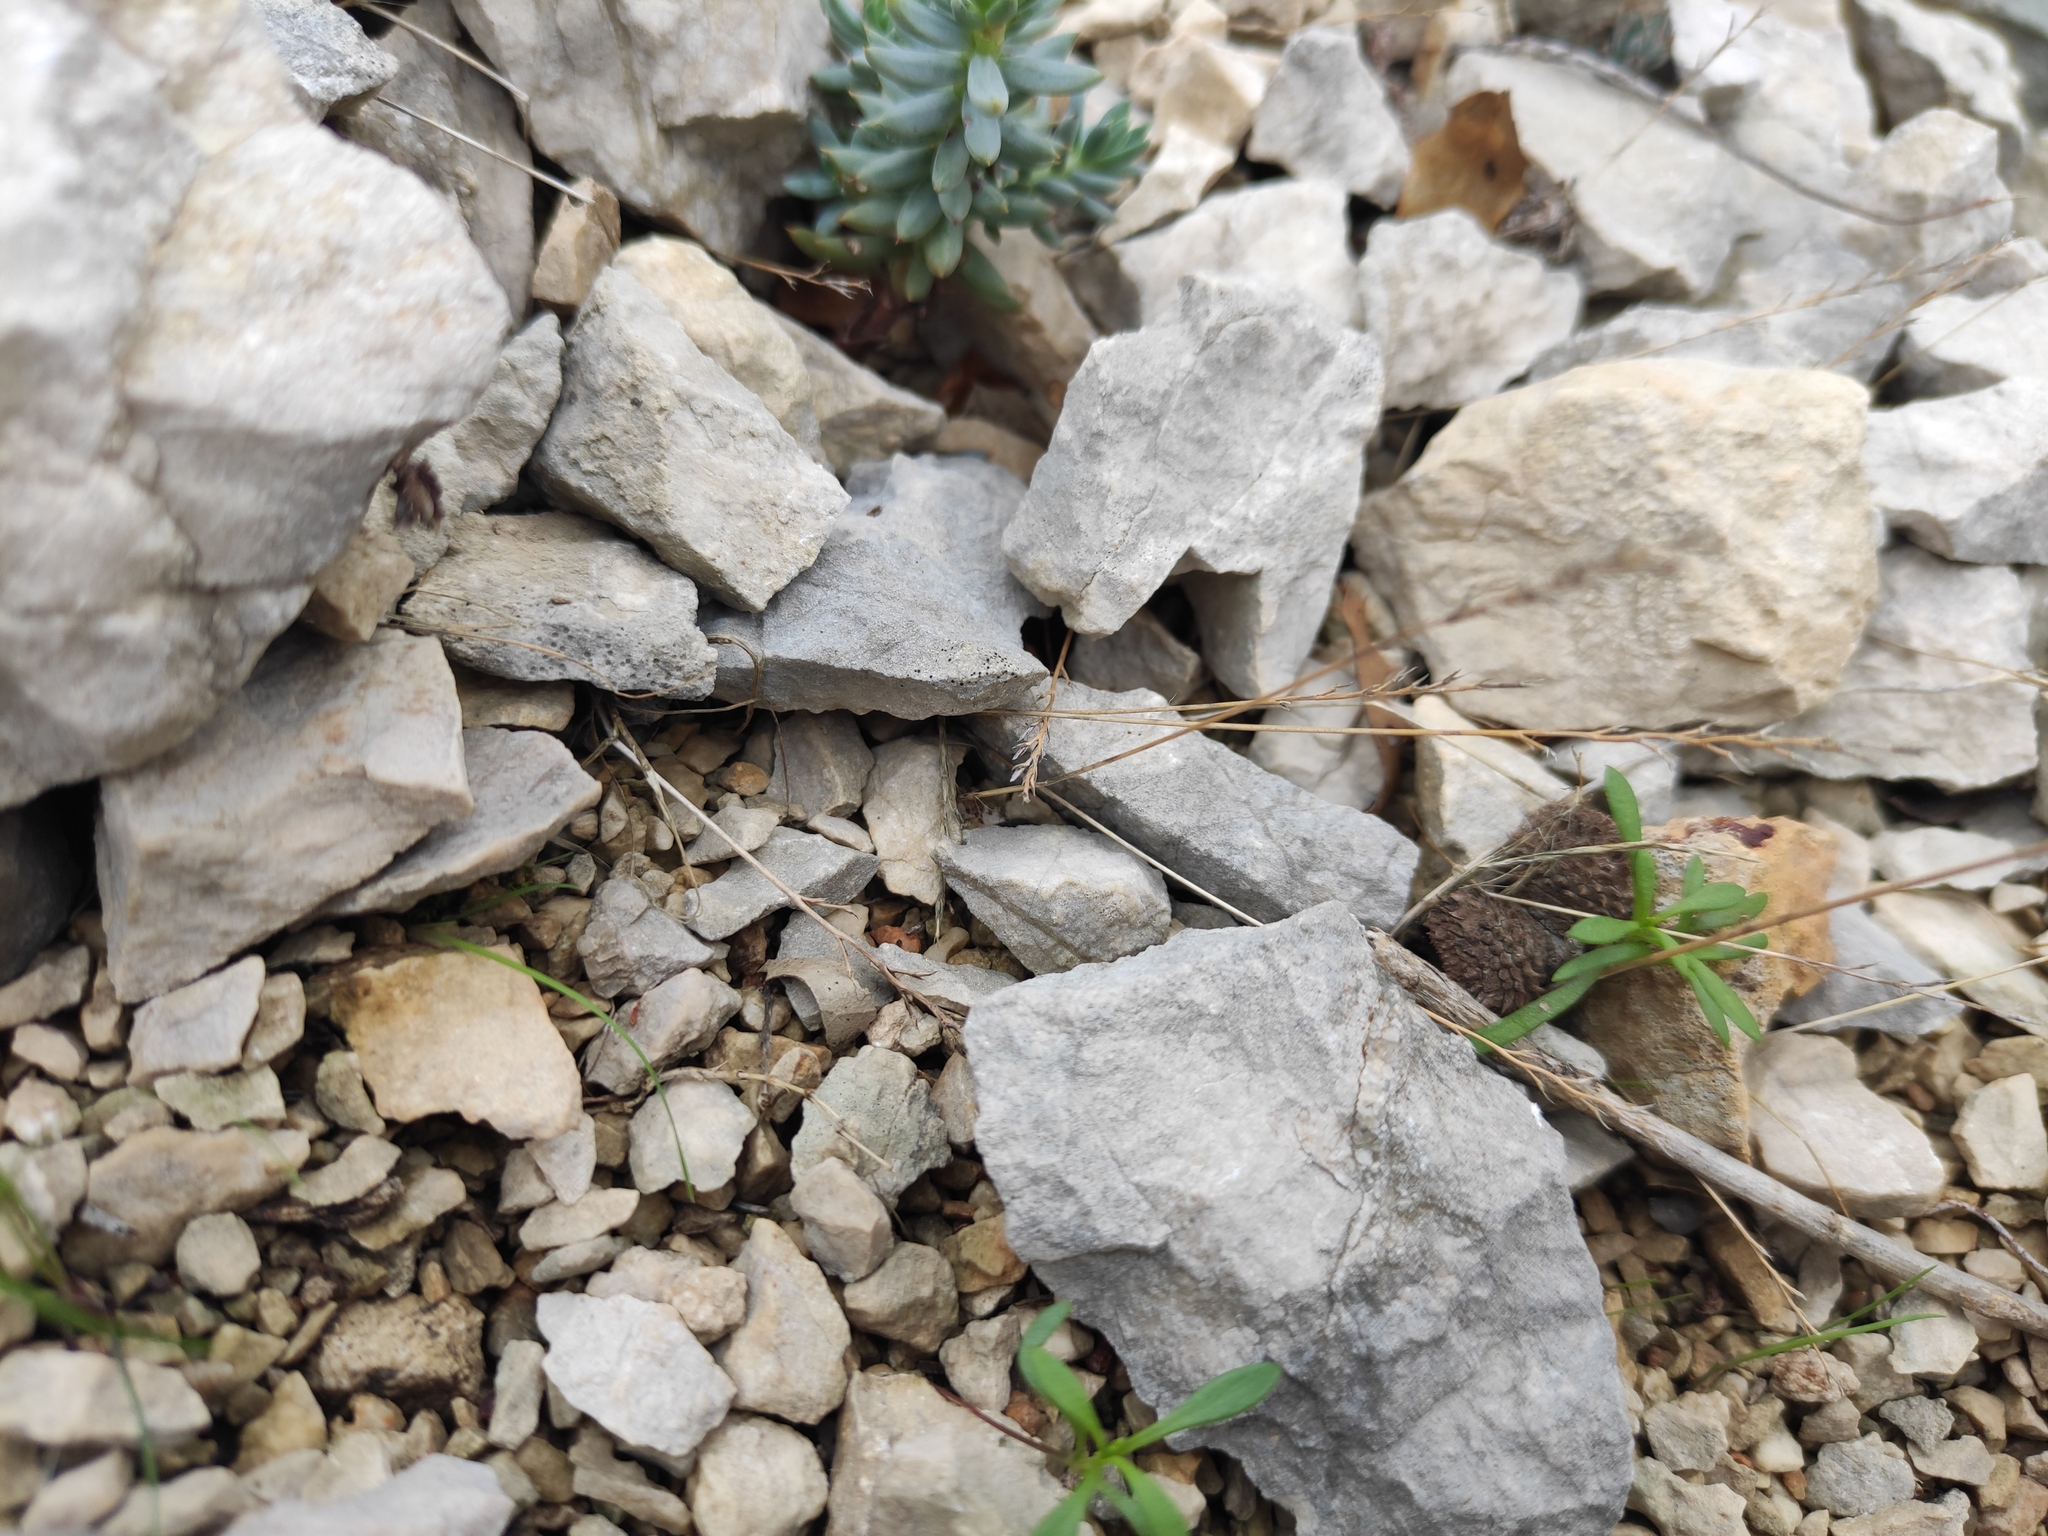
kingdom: Plantae
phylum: Tracheophyta
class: Liliopsida
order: Poales
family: Poaceae
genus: Catapodium
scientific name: Catapodium rigidum
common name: Fern-grass
